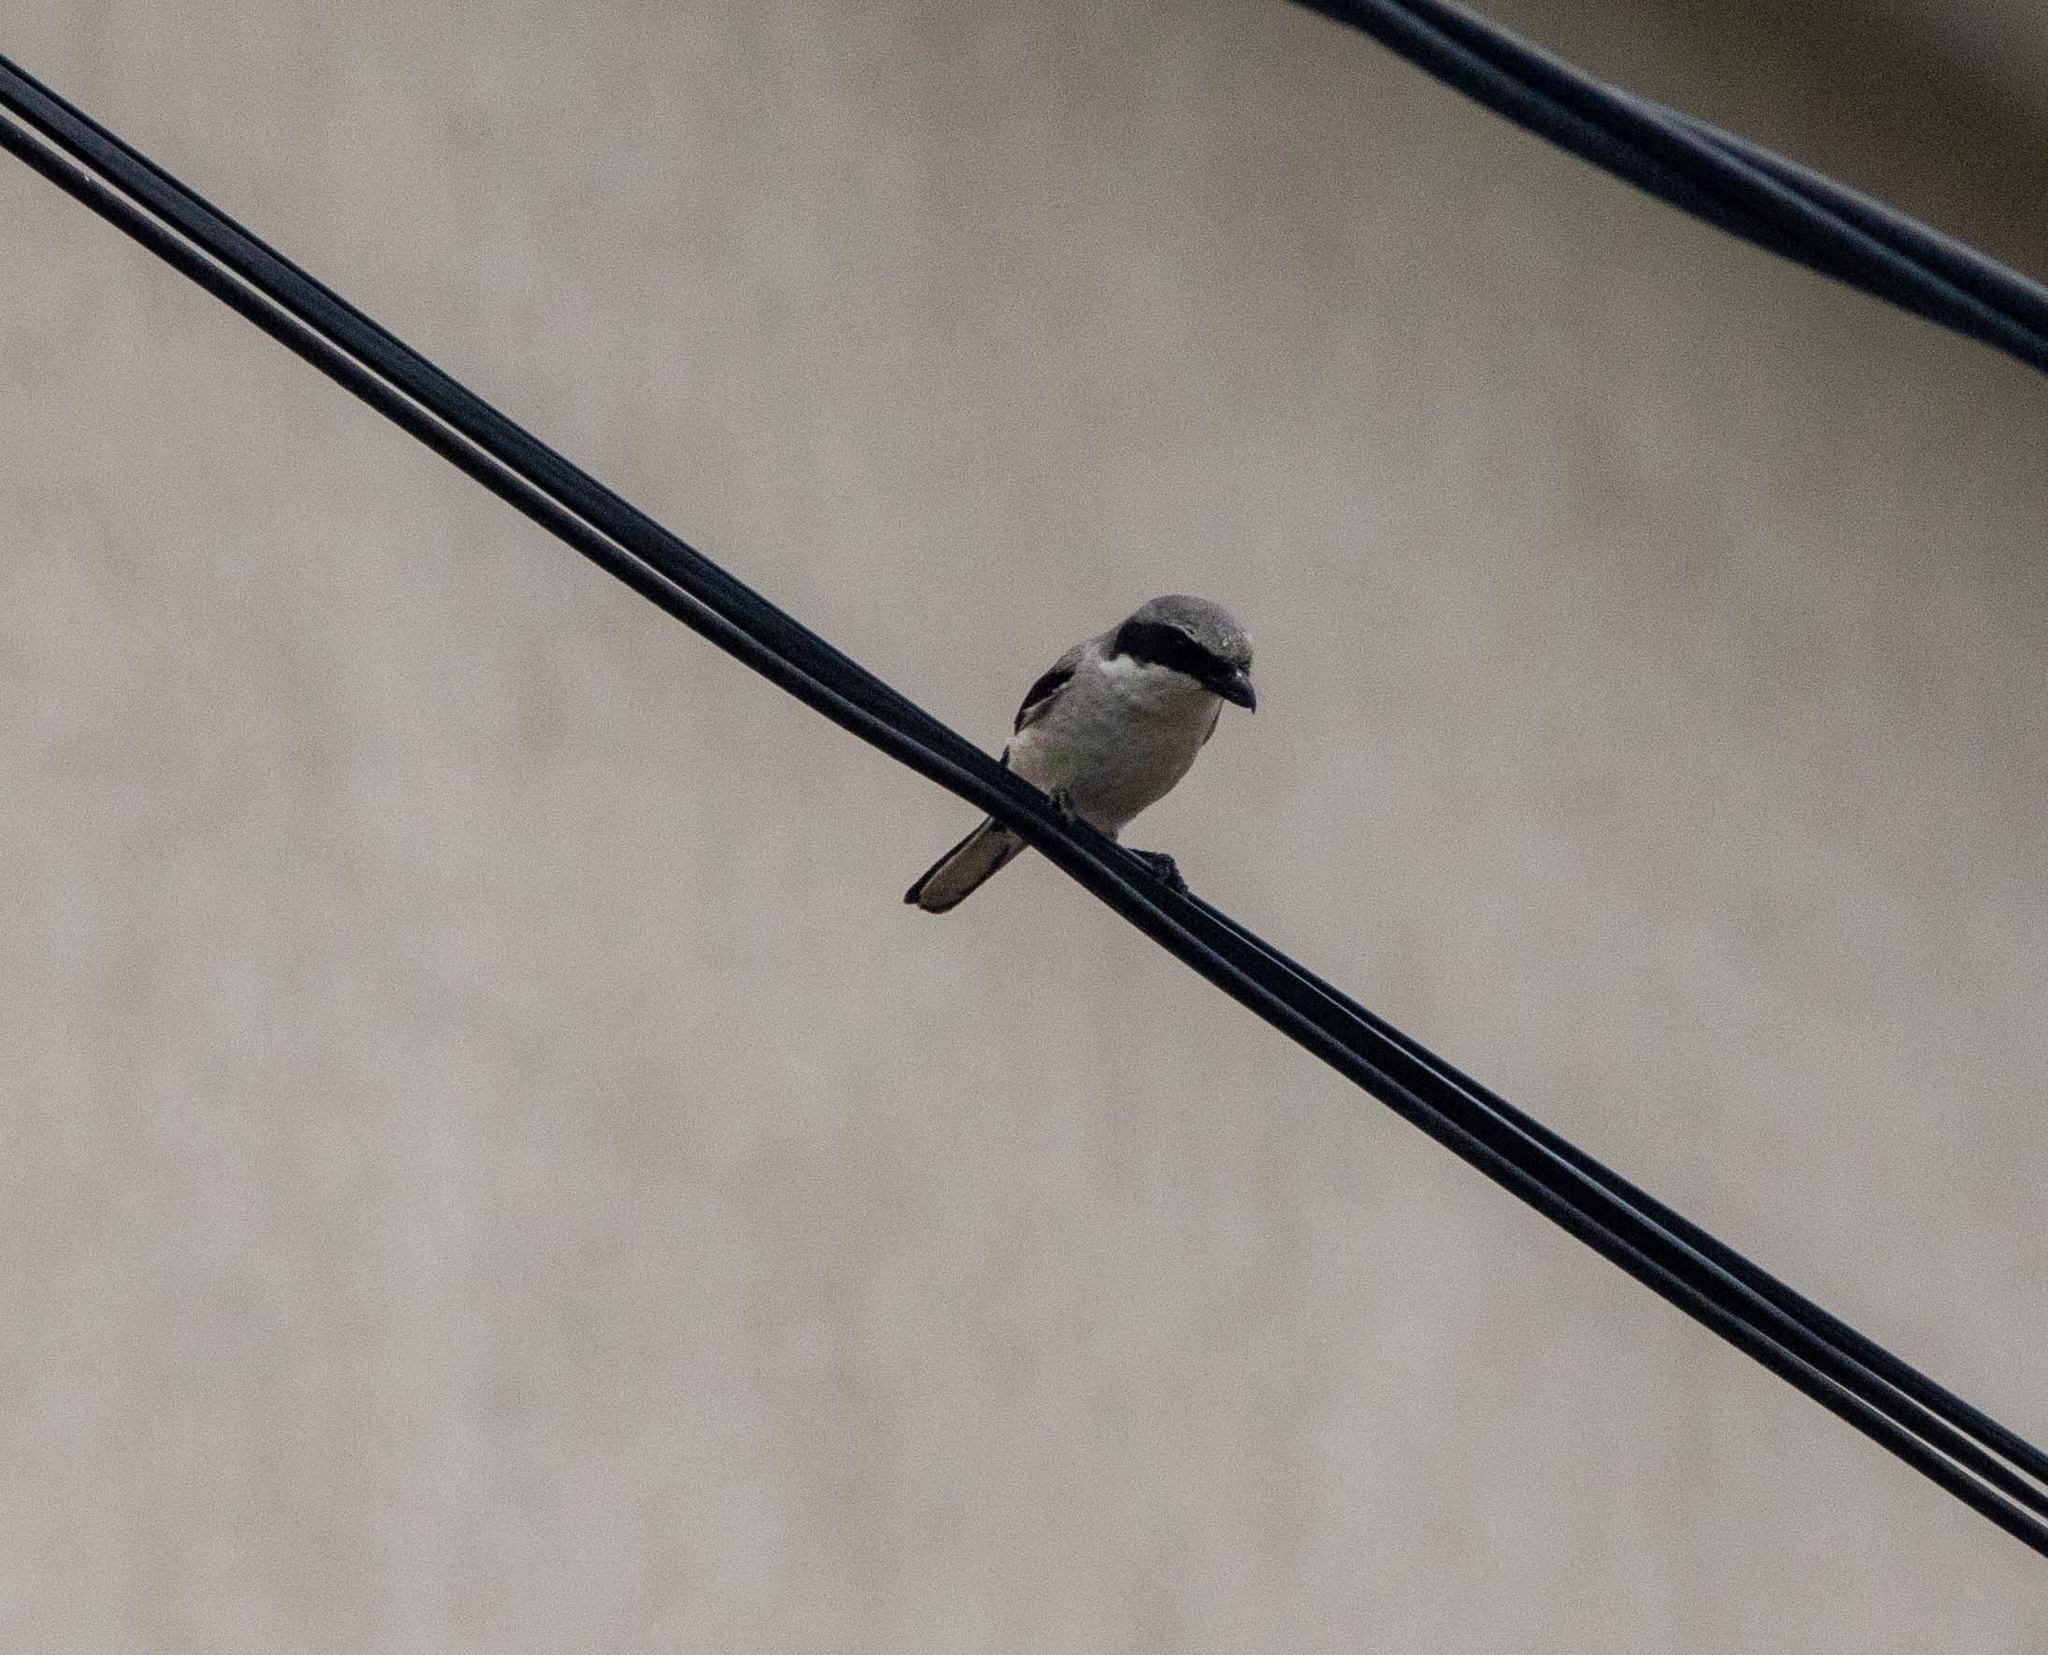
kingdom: Animalia
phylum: Chordata
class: Aves
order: Passeriformes
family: Laniidae
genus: Lanius
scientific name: Lanius ludovicianus
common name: Loggerhead shrike
